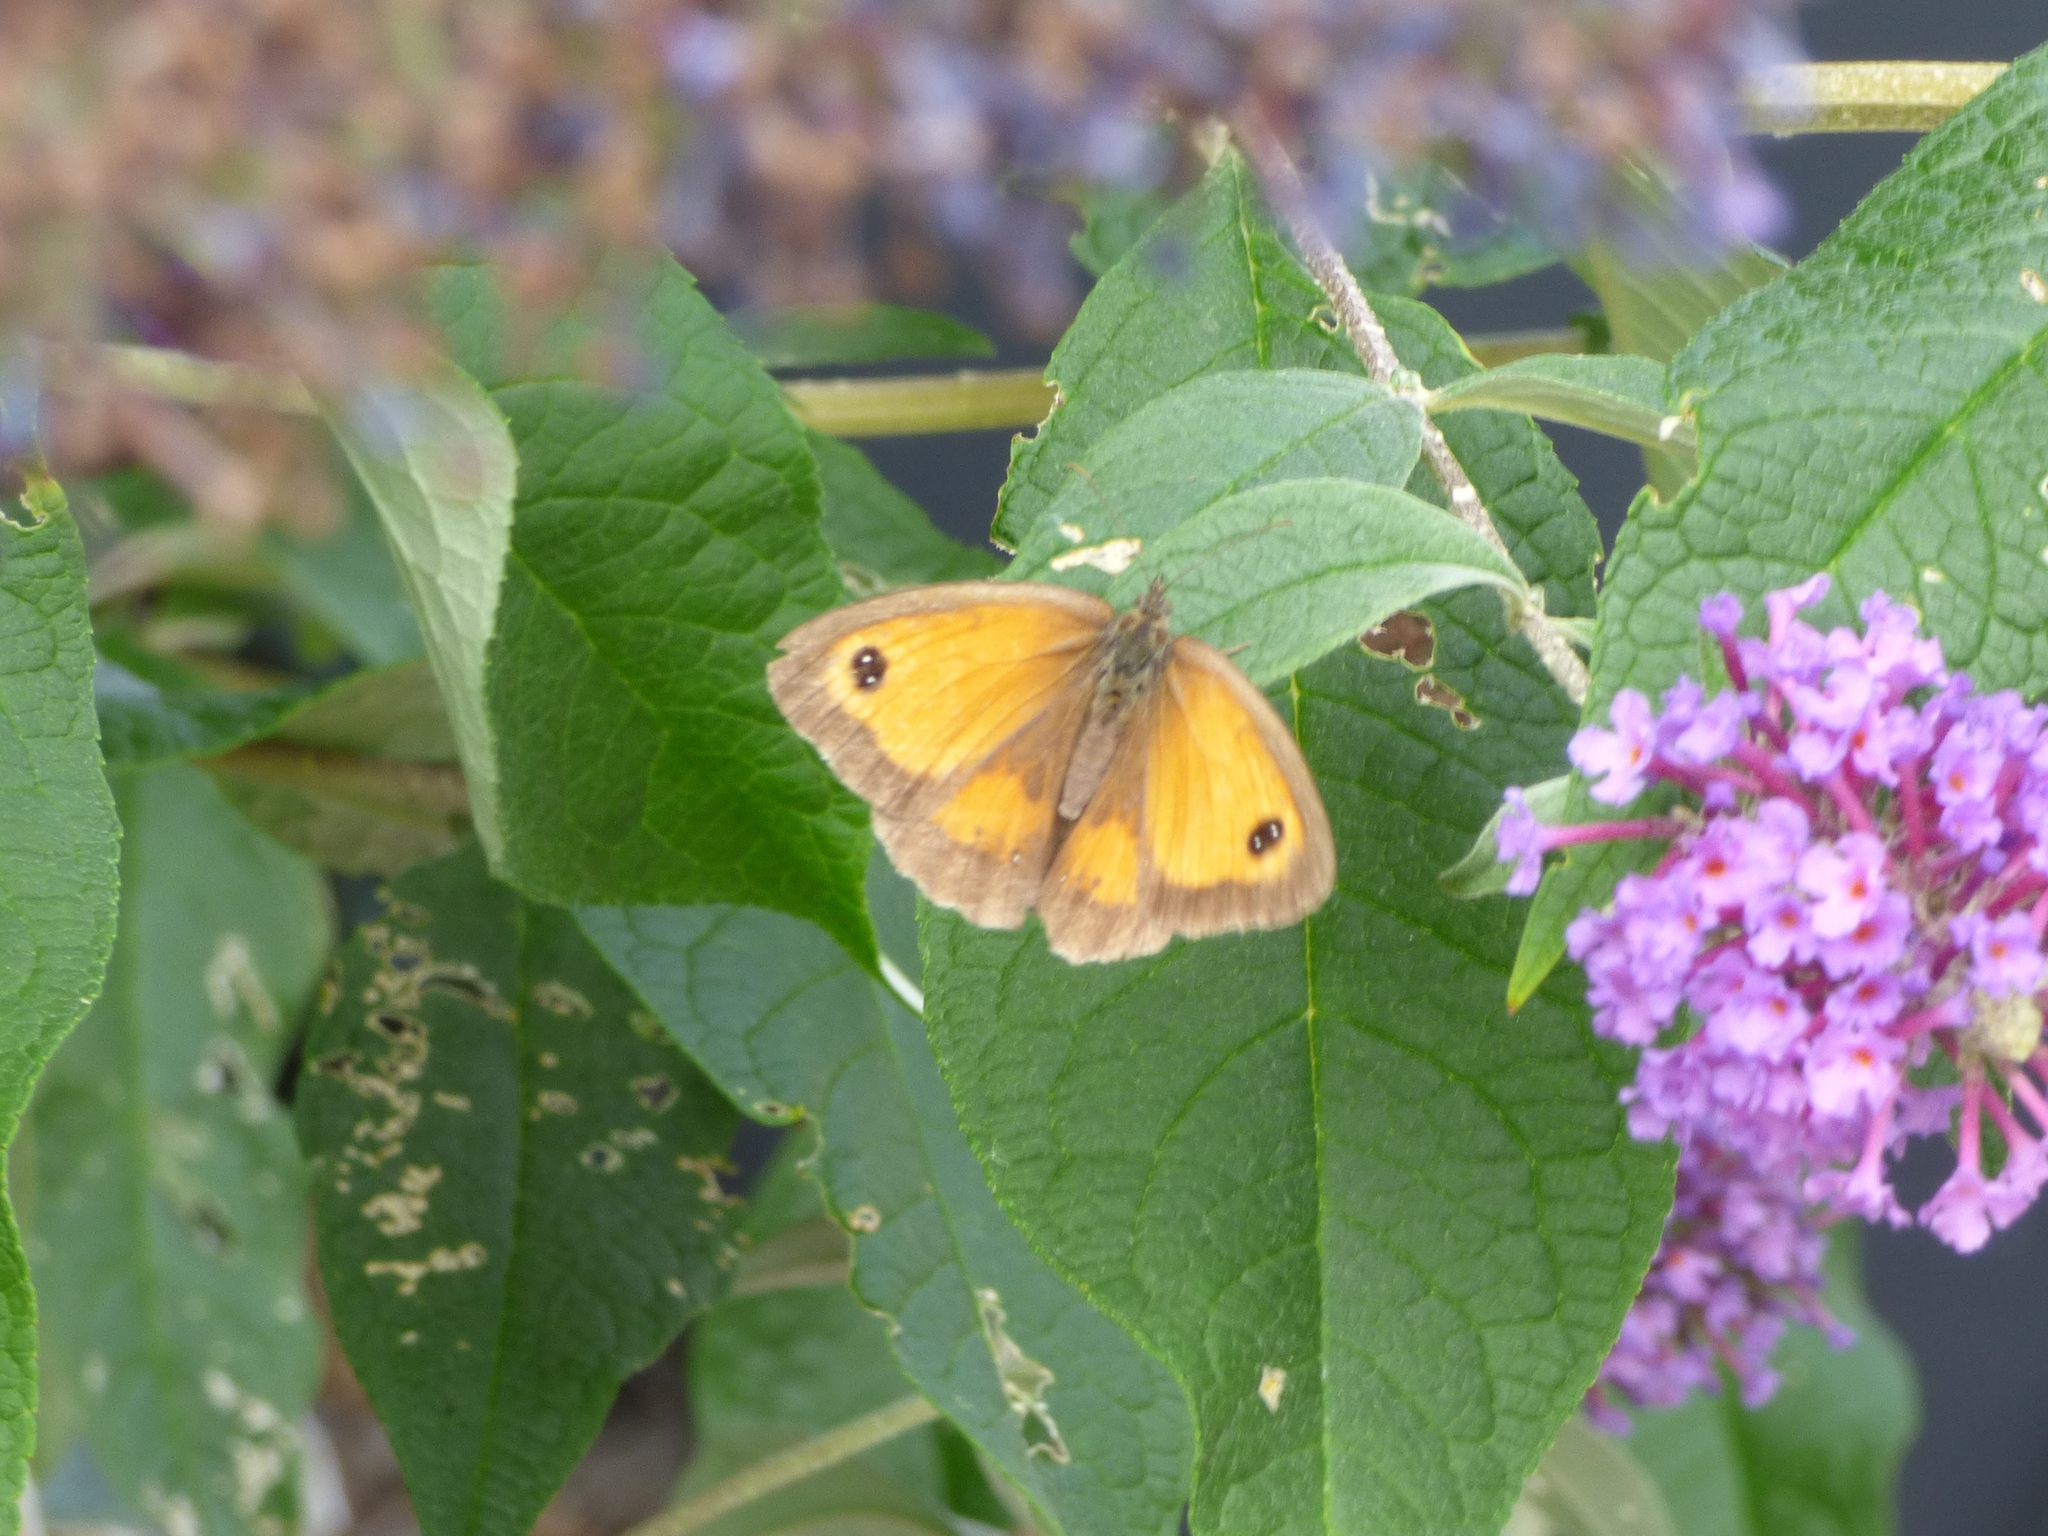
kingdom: Animalia
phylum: Arthropoda
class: Insecta
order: Lepidoptera
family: Nymphalidae
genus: Pyronia
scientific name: Pyronia tithonus
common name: Gatekeeper
